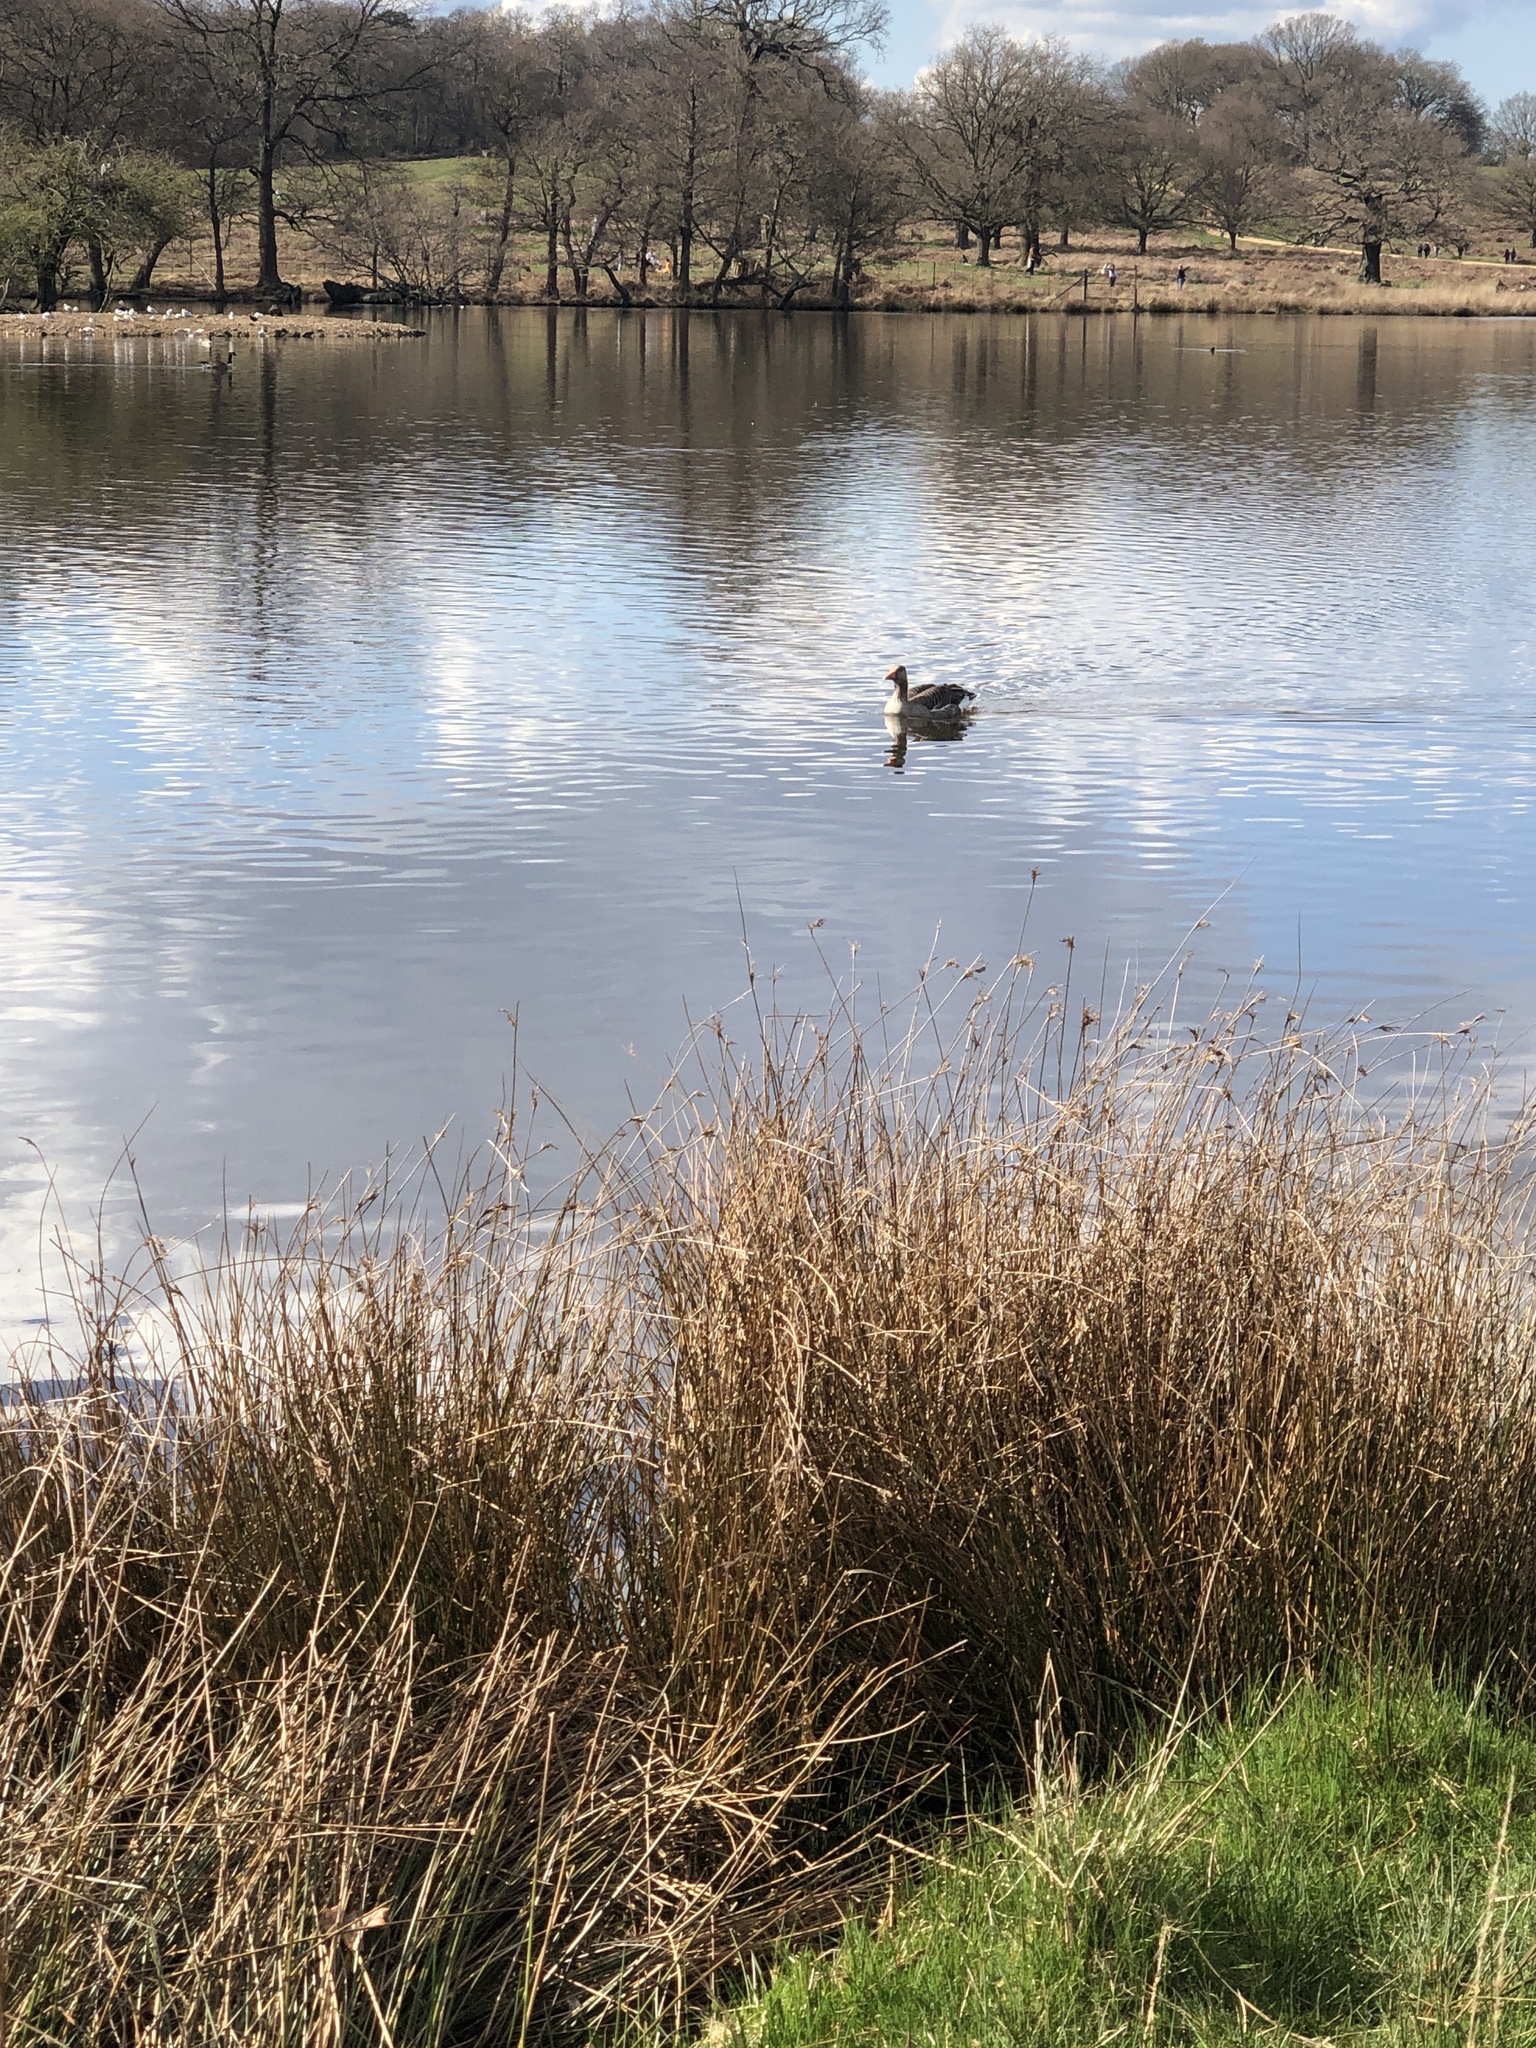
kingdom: Animalia
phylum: Chordata
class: Aves
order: Anseriformes
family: Anatidae
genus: Anser
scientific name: Anser anser
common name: Greylag goose
